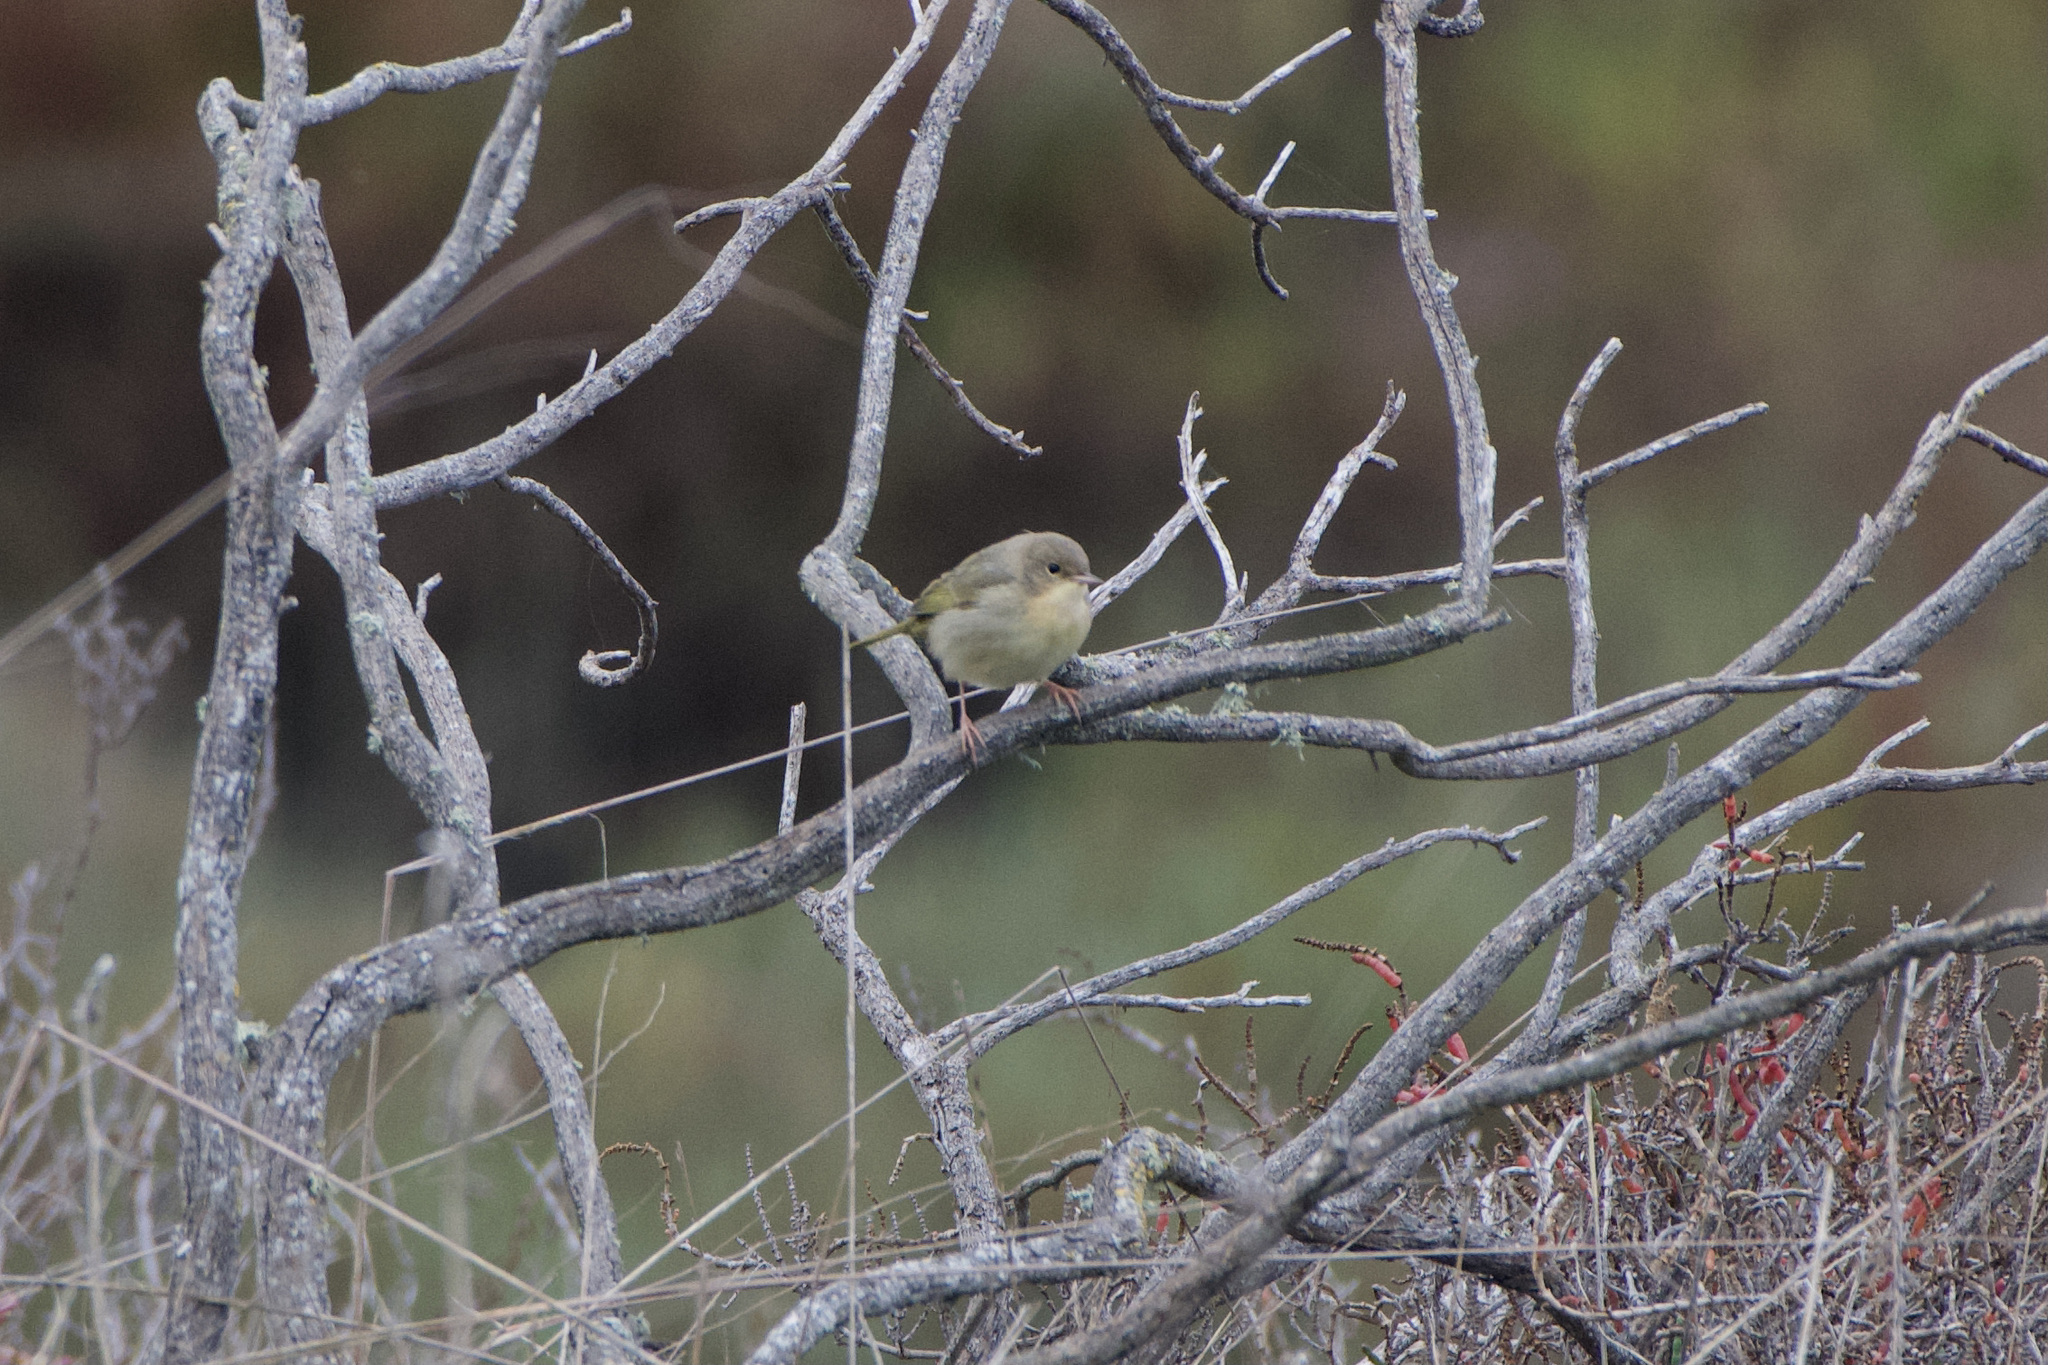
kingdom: Animalia
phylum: Chordata
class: Aves
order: Passeriformes
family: Parulidae
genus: Geothlypis
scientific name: Geothlypis trichas
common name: Common yellowthroat
